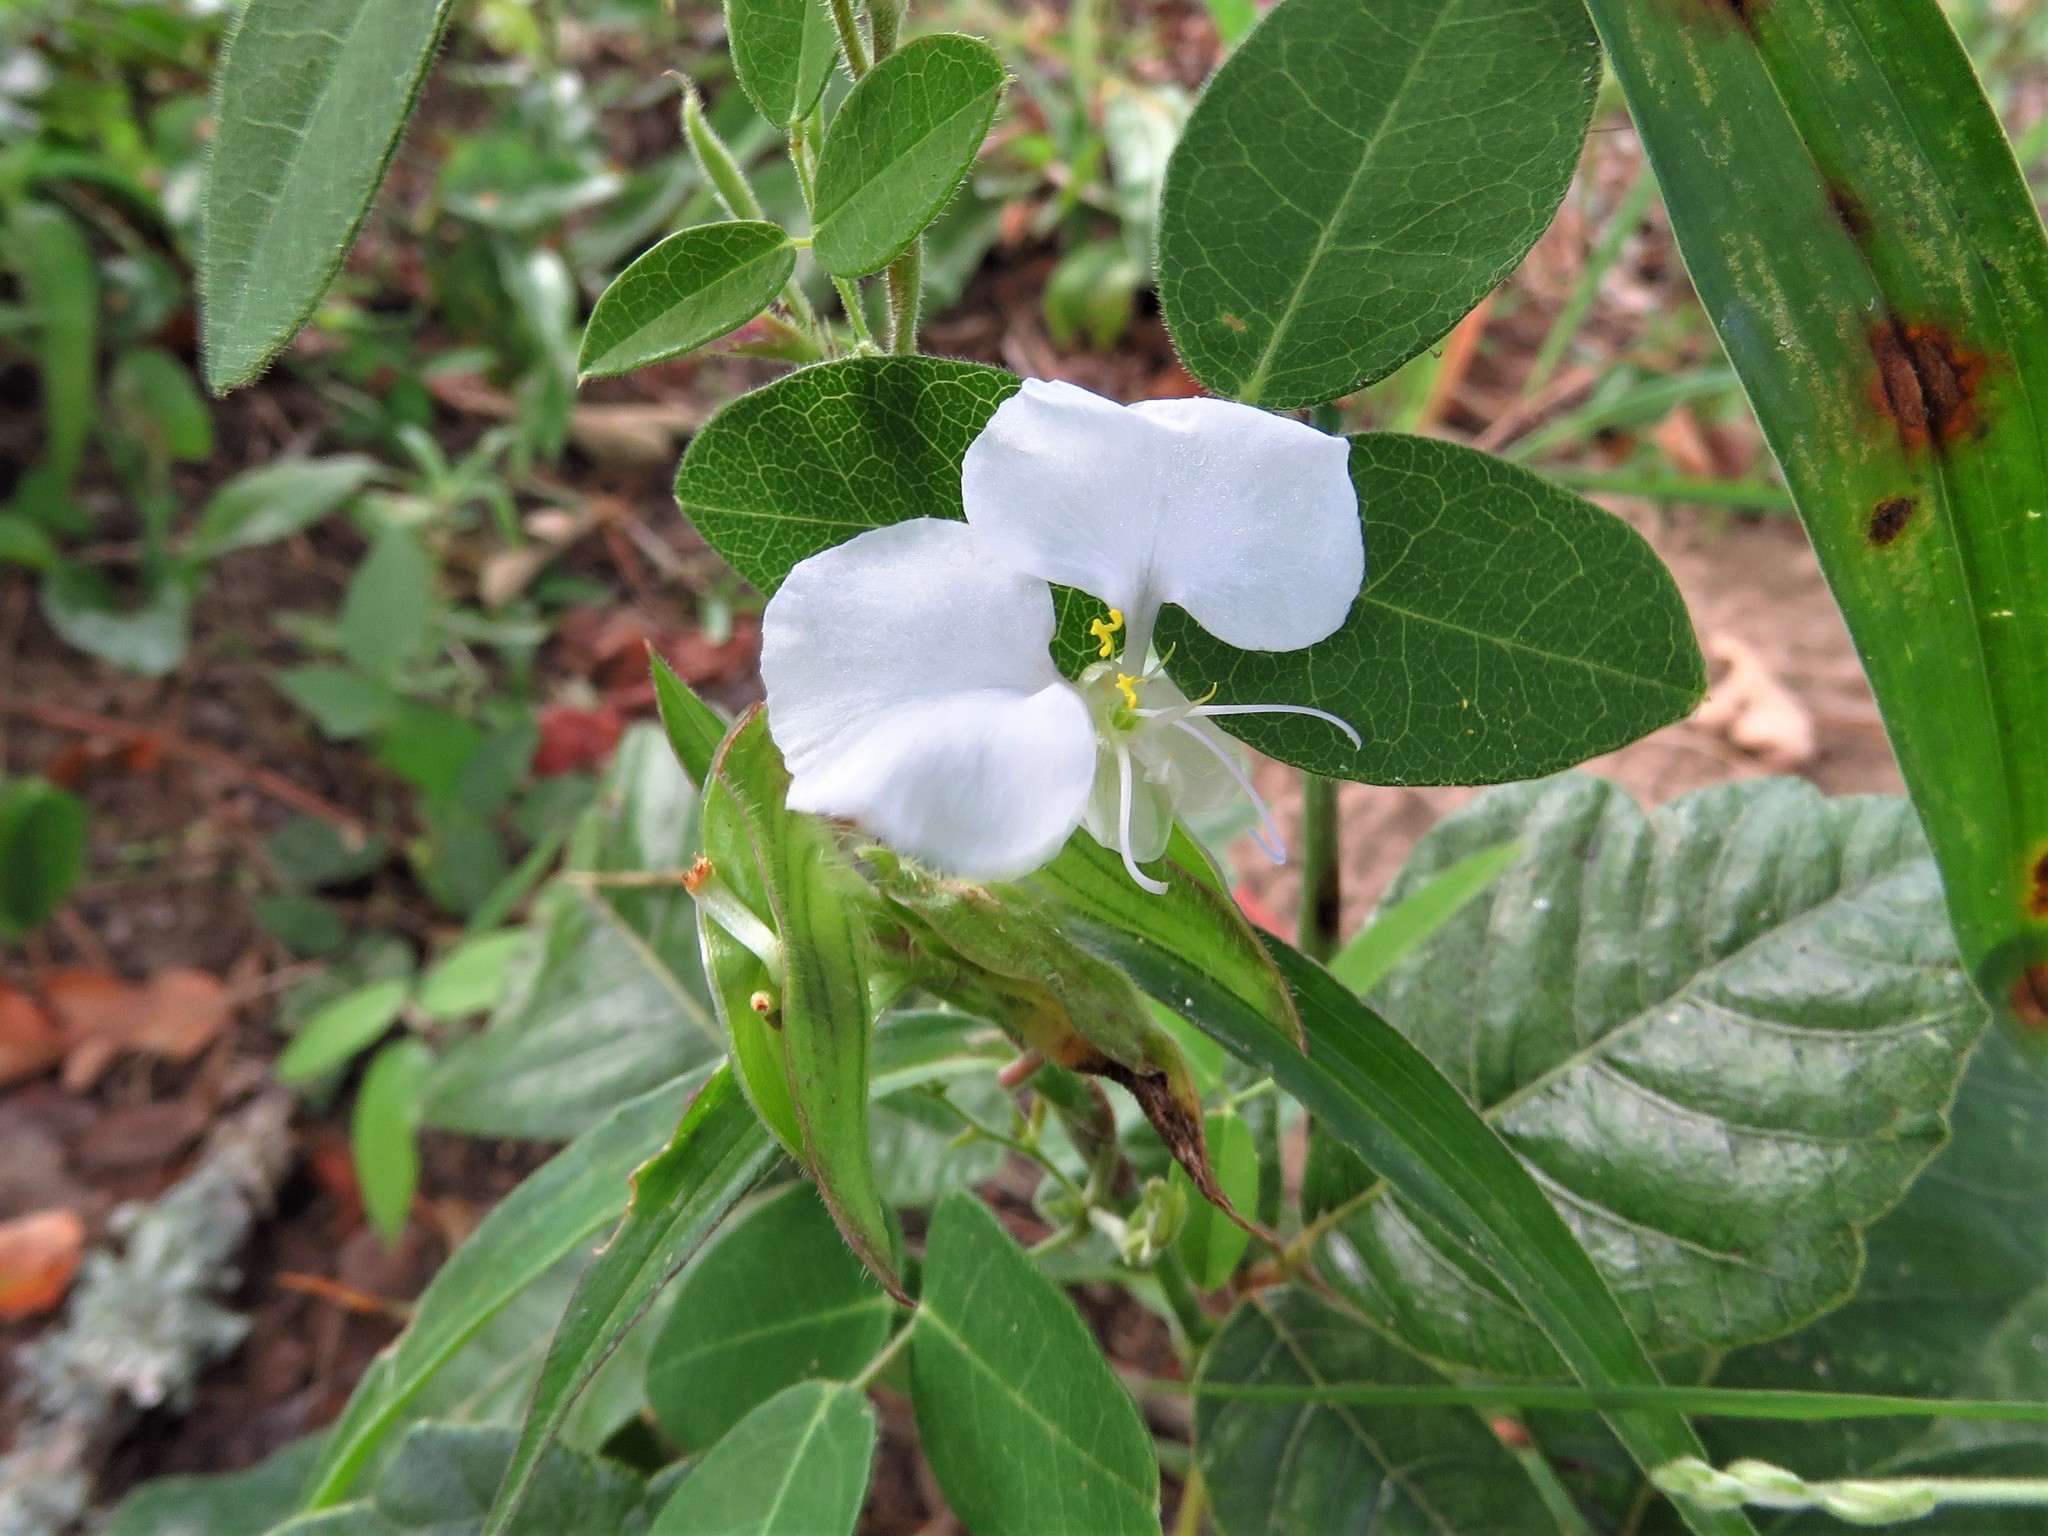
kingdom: Plantae
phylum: Tracheophyta
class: Liliopsida
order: Commelinales
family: Commelinaceae
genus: Commelina
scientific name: Commelina erecta
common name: Blousel blommetjie
